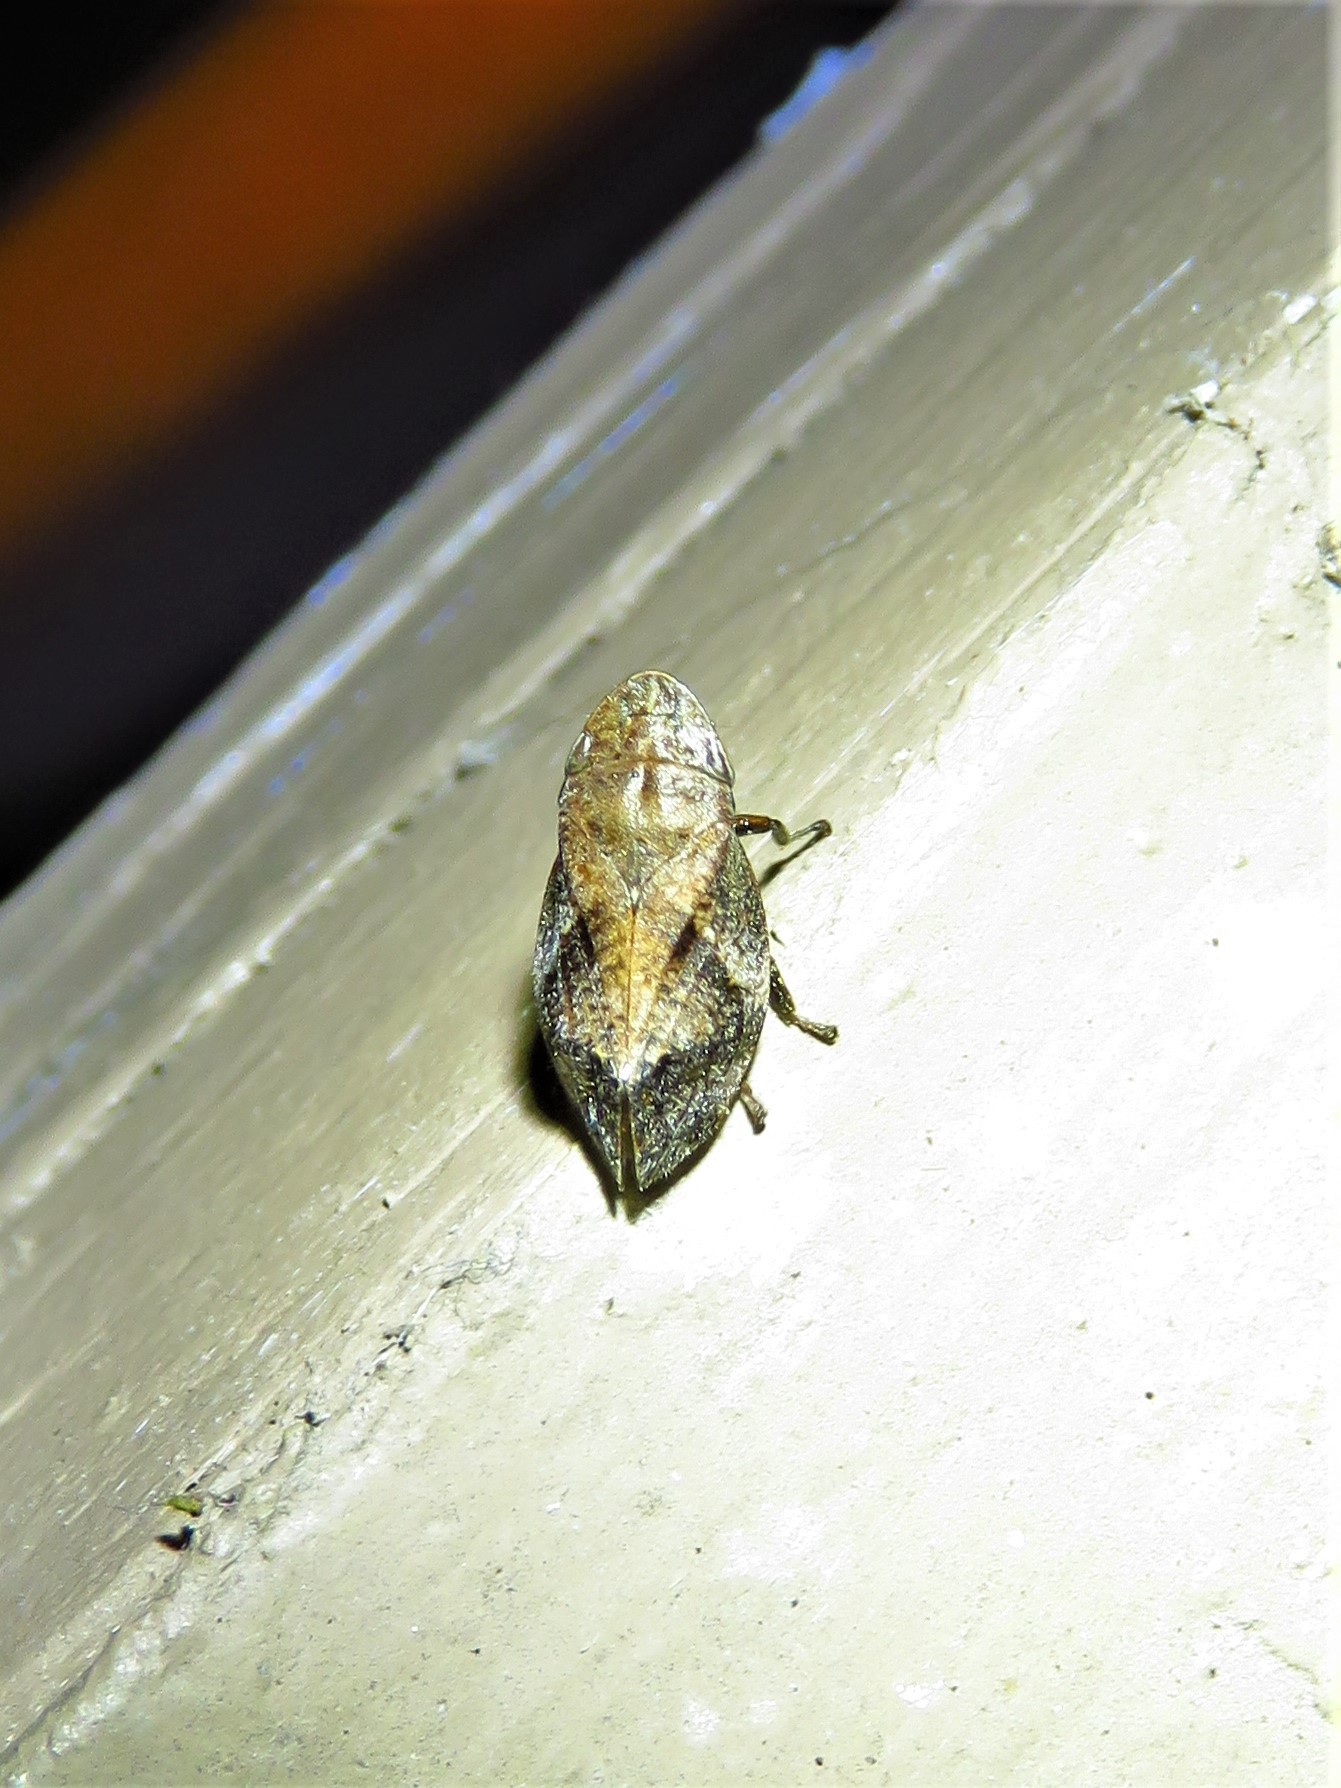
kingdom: Animalia
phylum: Arthropoda
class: Insecta
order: Hemiptera
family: Aphrophoridae
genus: Lepyronia
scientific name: Lepyronia quadrangularis
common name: Diamond-backed spittlebug
